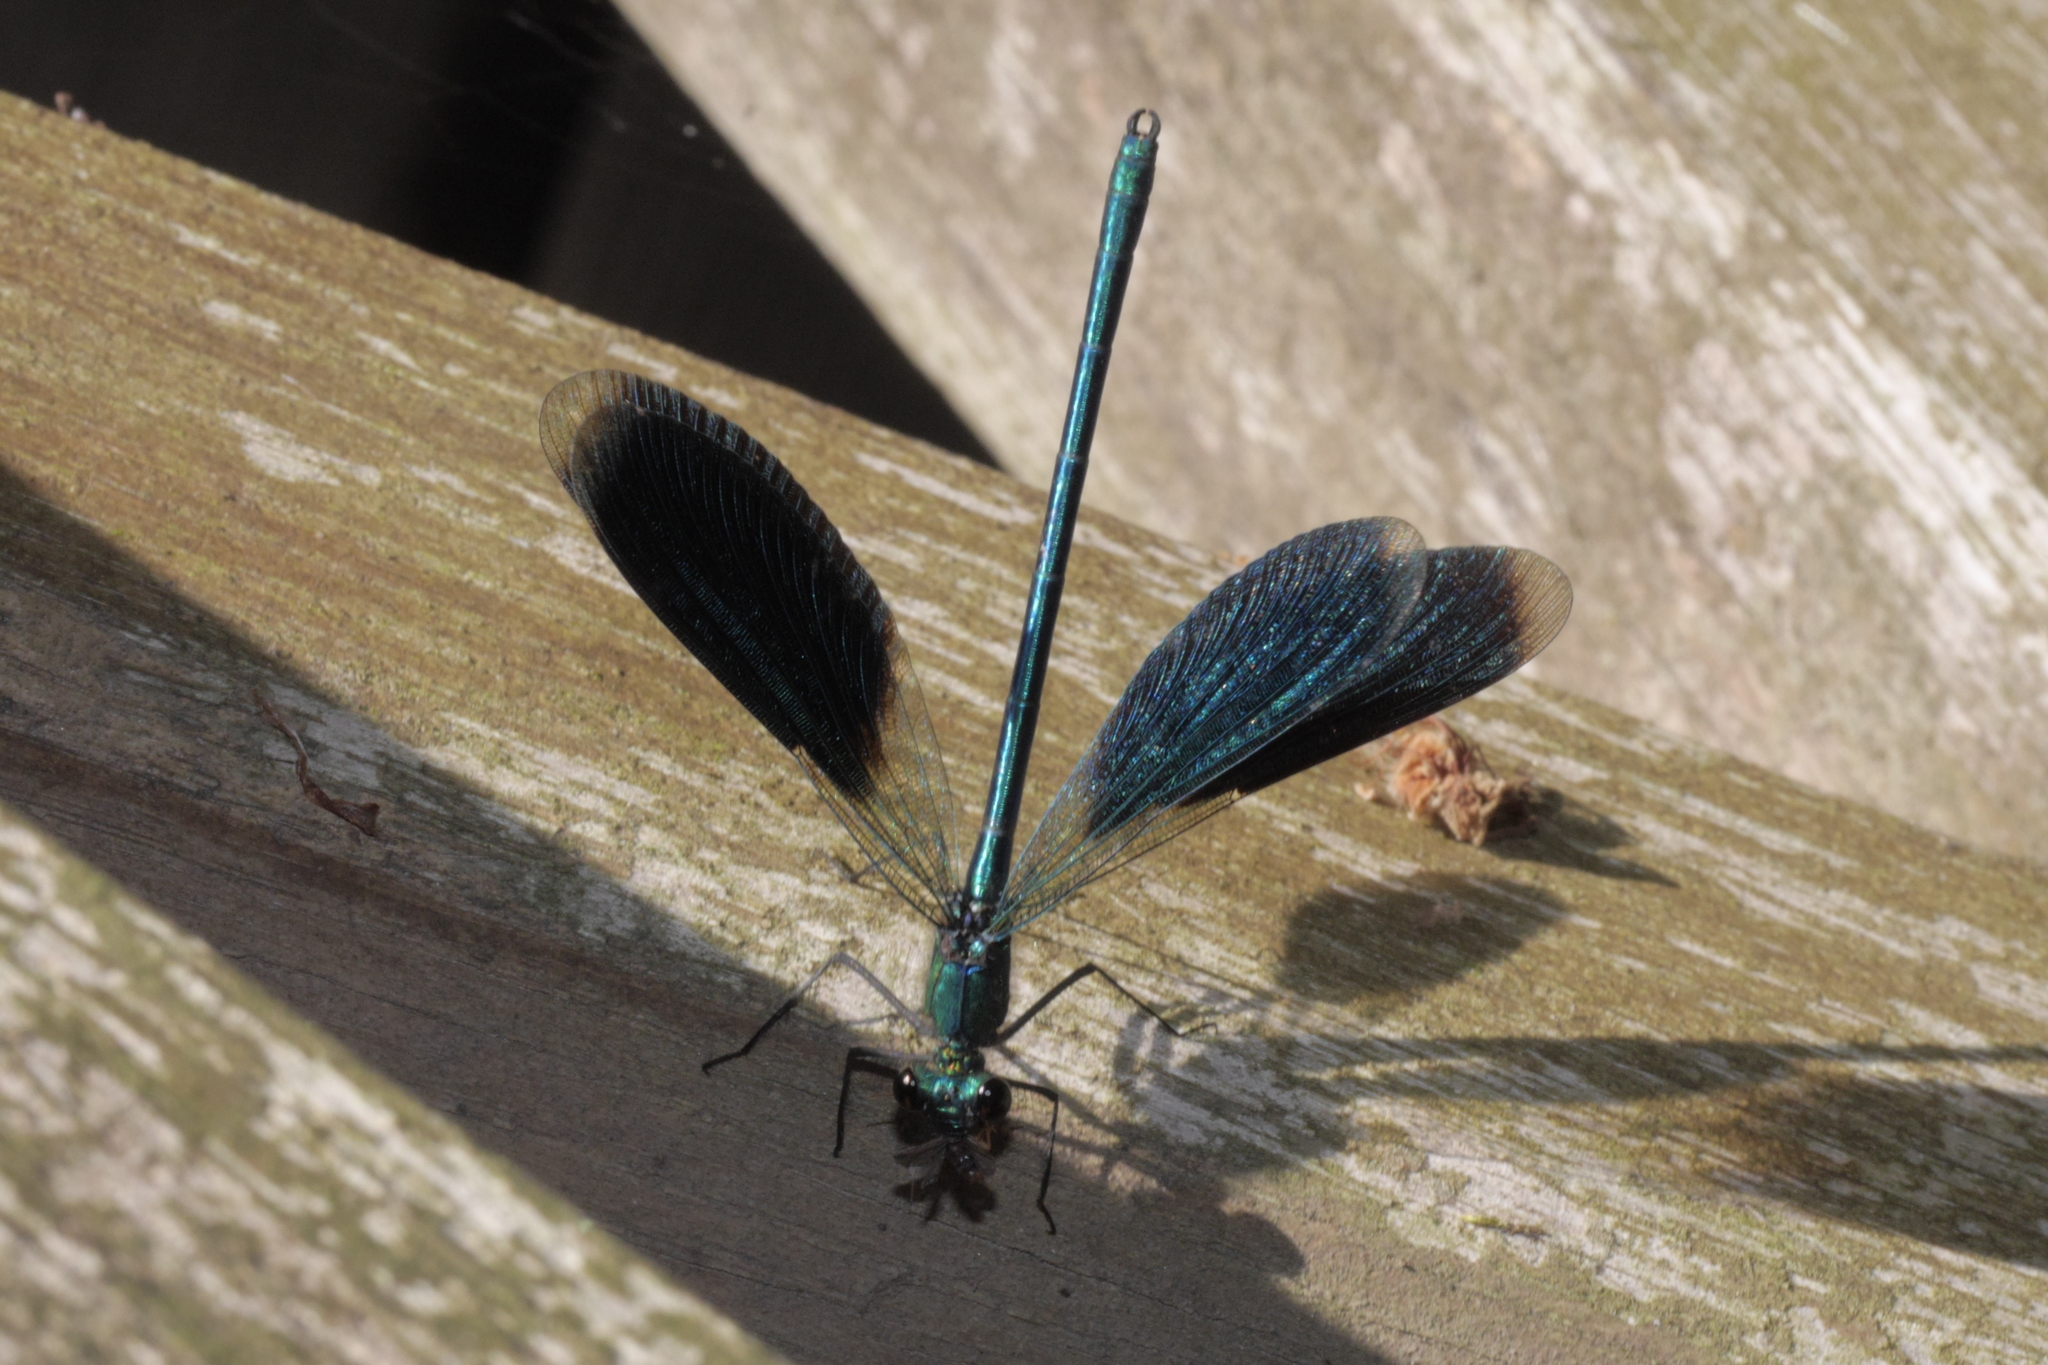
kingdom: Animalia
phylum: Arthropoda
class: Insecta
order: Odonata
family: Calopterygidae
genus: Calopteryx
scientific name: Calopteryx splendens
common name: Banded demoiselle
